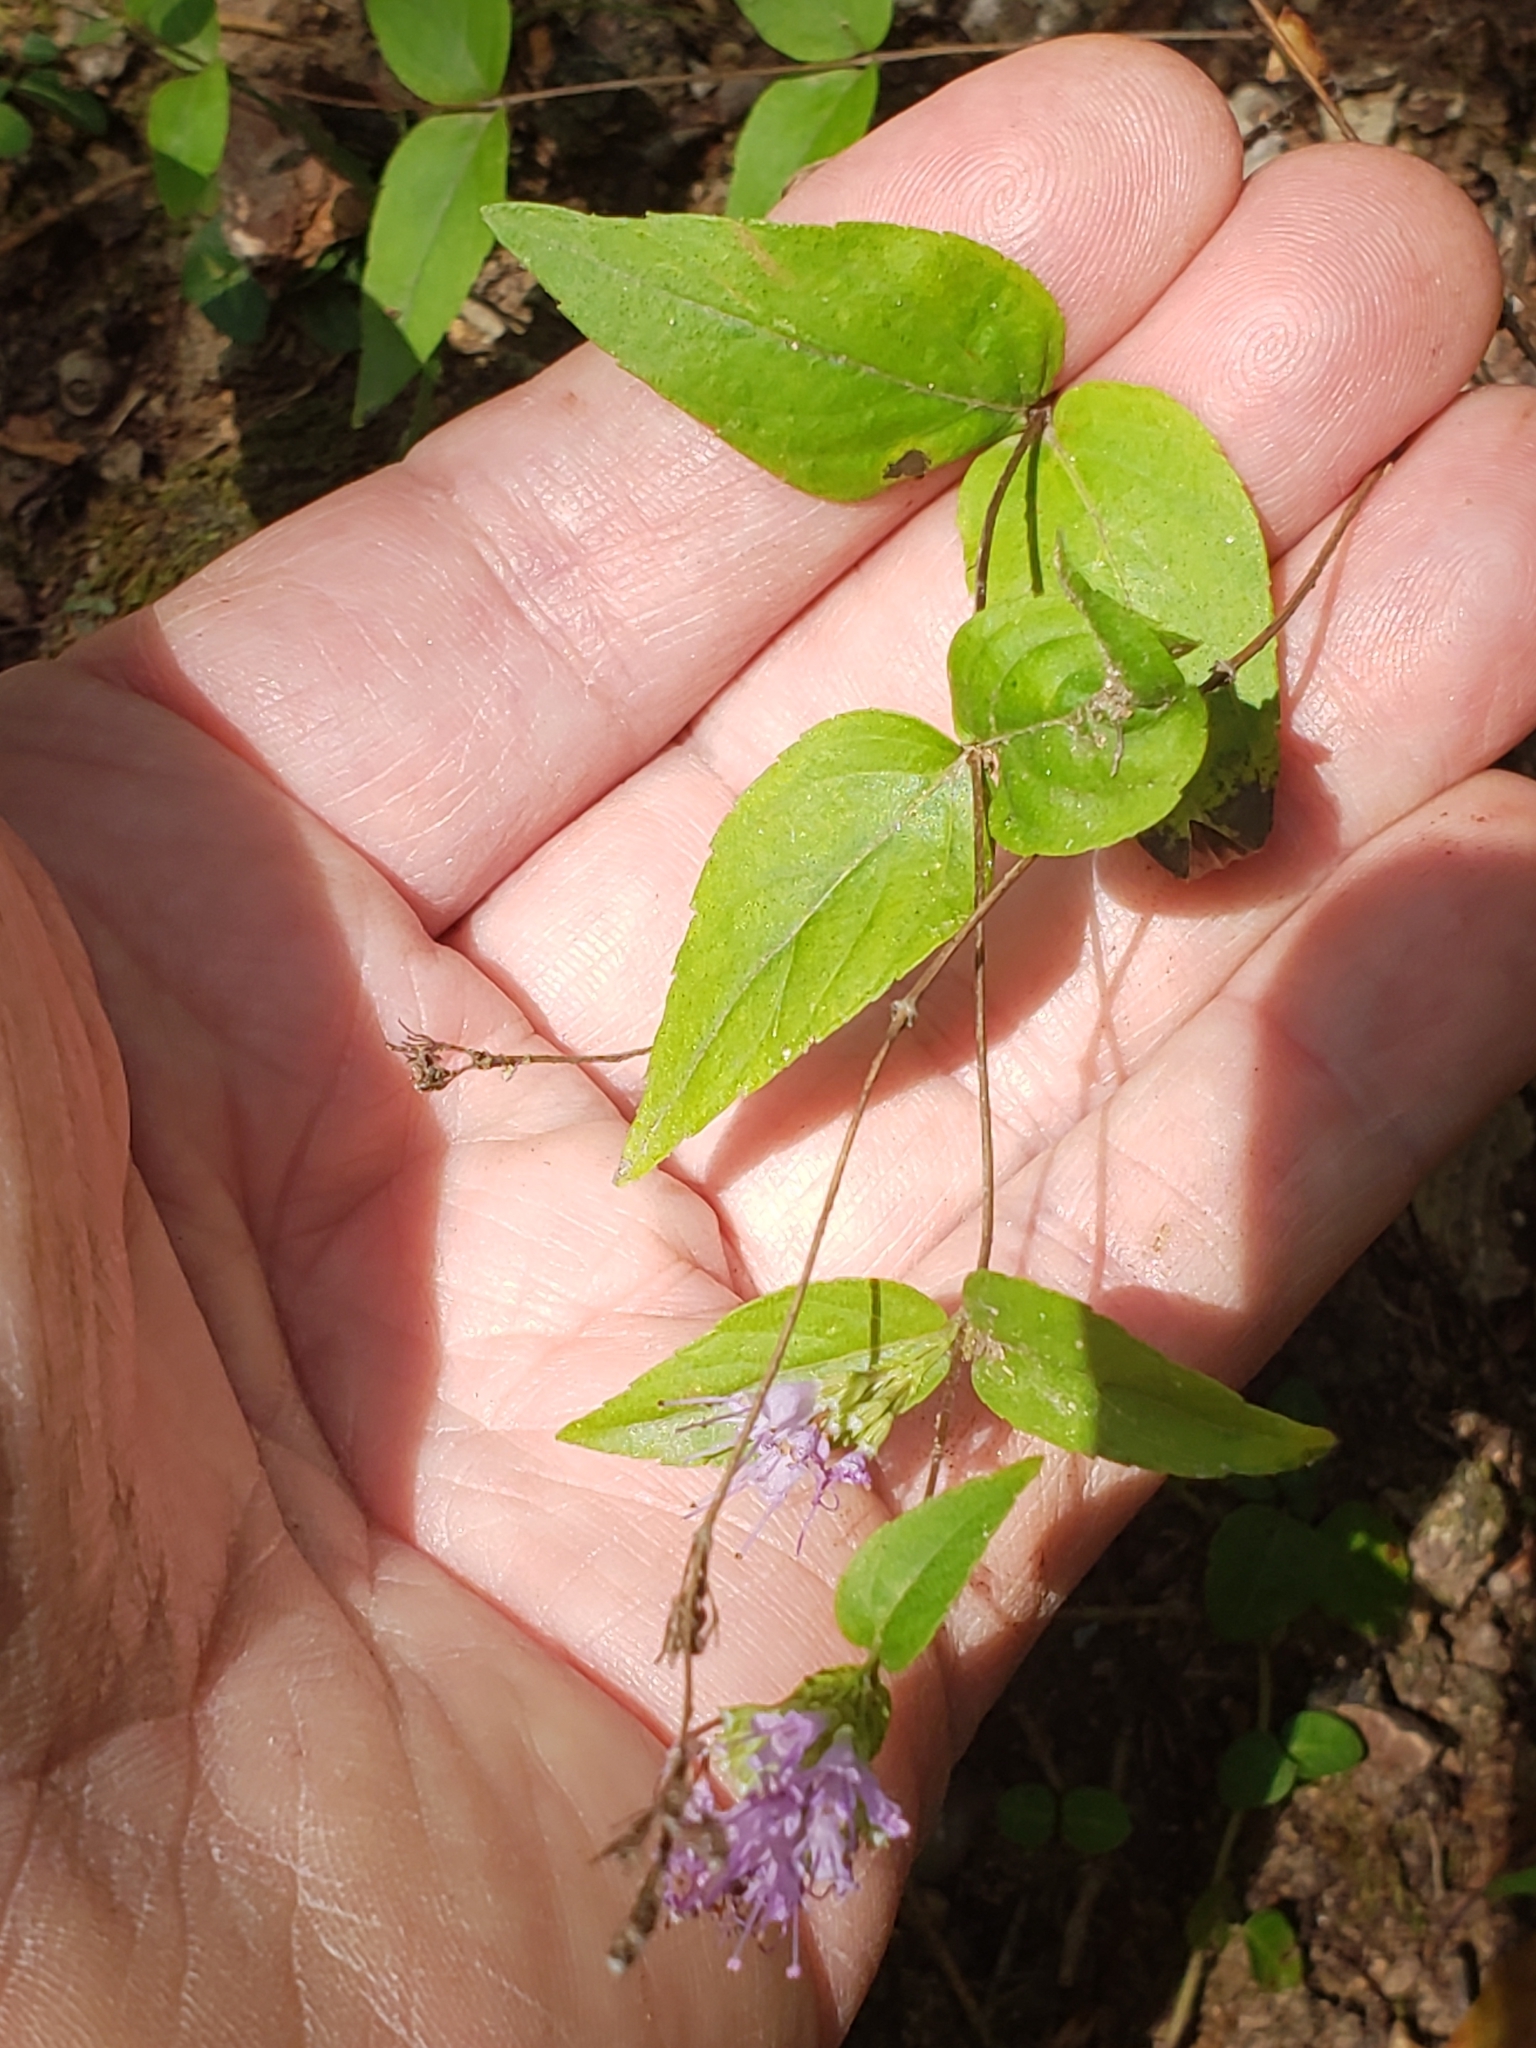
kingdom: Plantae
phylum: Tracheophyta
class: Magnoliopsida
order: Lamiales
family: Lamiaceae
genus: Cunila
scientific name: Cunila origanoides
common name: American dittany
